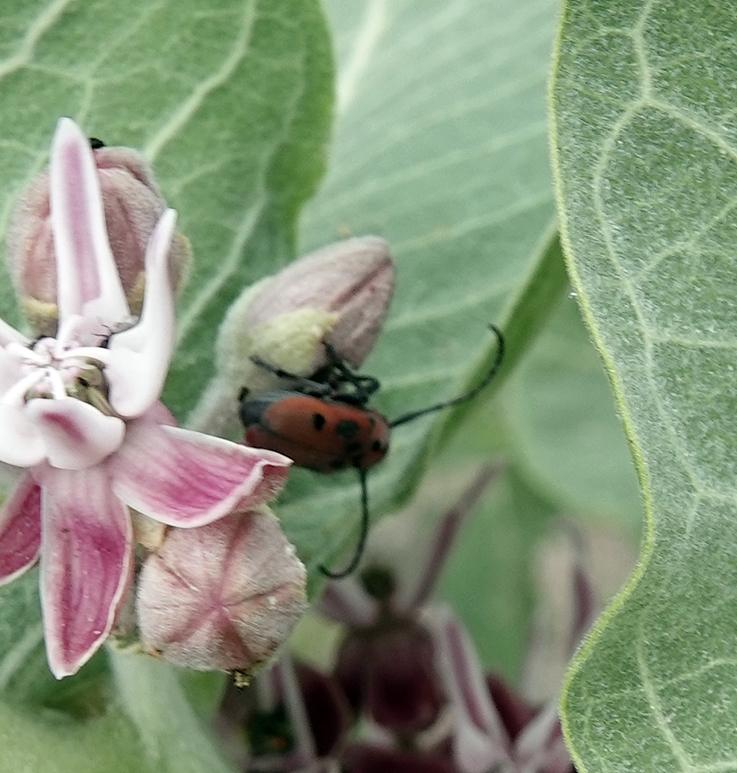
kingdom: Animalia
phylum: Arthropoda
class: Insecta
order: Coleoptera
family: Cerambycidae
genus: Tetraopes
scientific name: Tetraopes tetrophthalmus
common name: Red milkweed beetle
